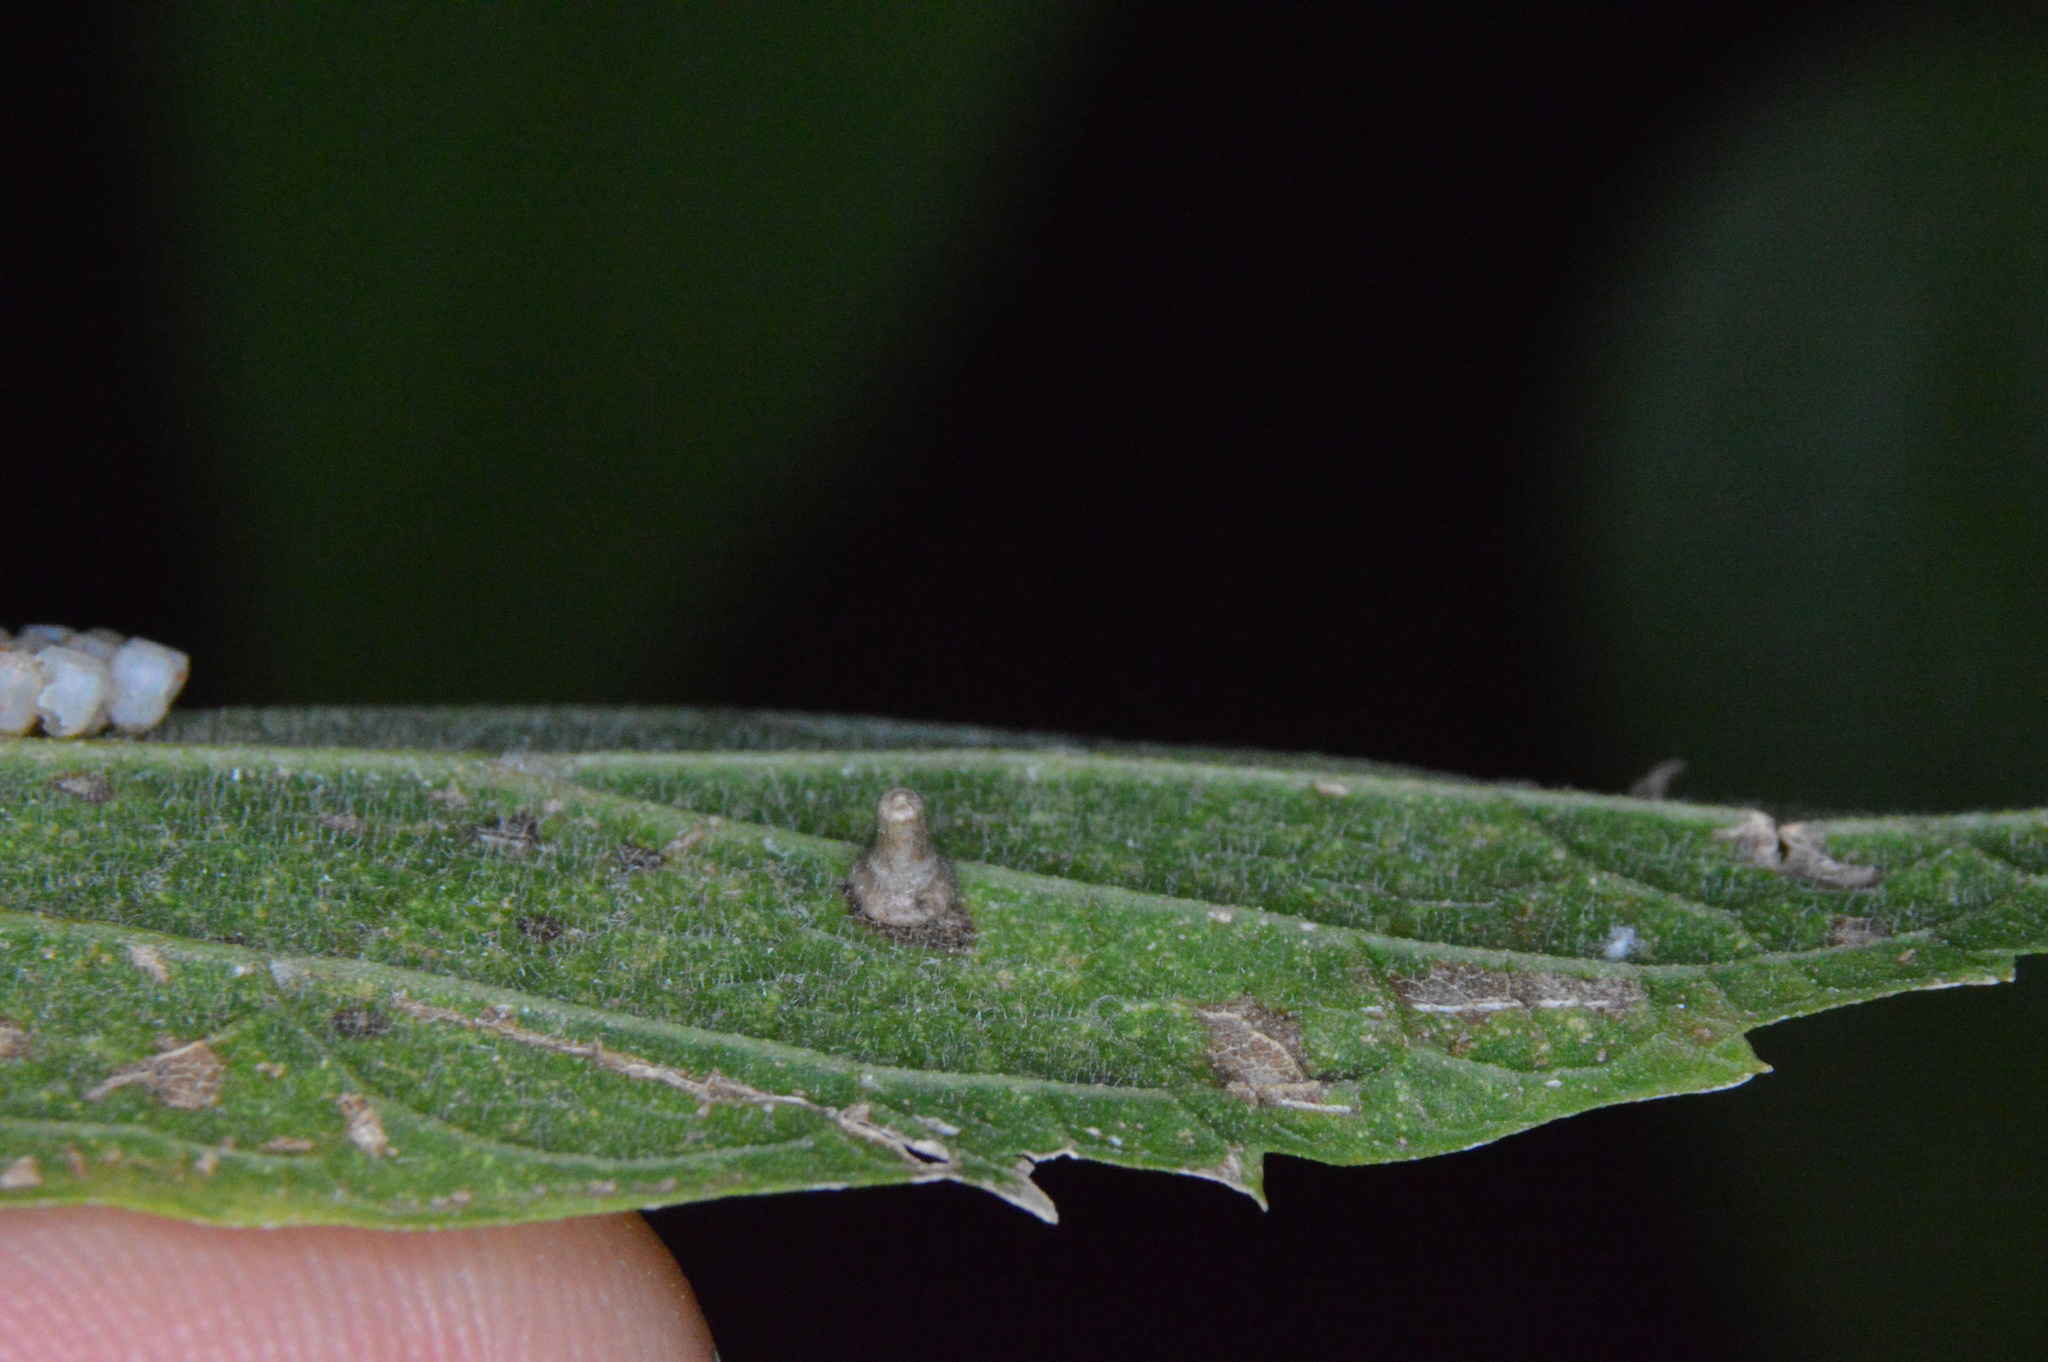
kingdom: Animalia
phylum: Arthropoda
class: Insecta
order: Diptera
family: Cecidomyiidae
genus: Celticecis
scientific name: Celticecis aciculata
